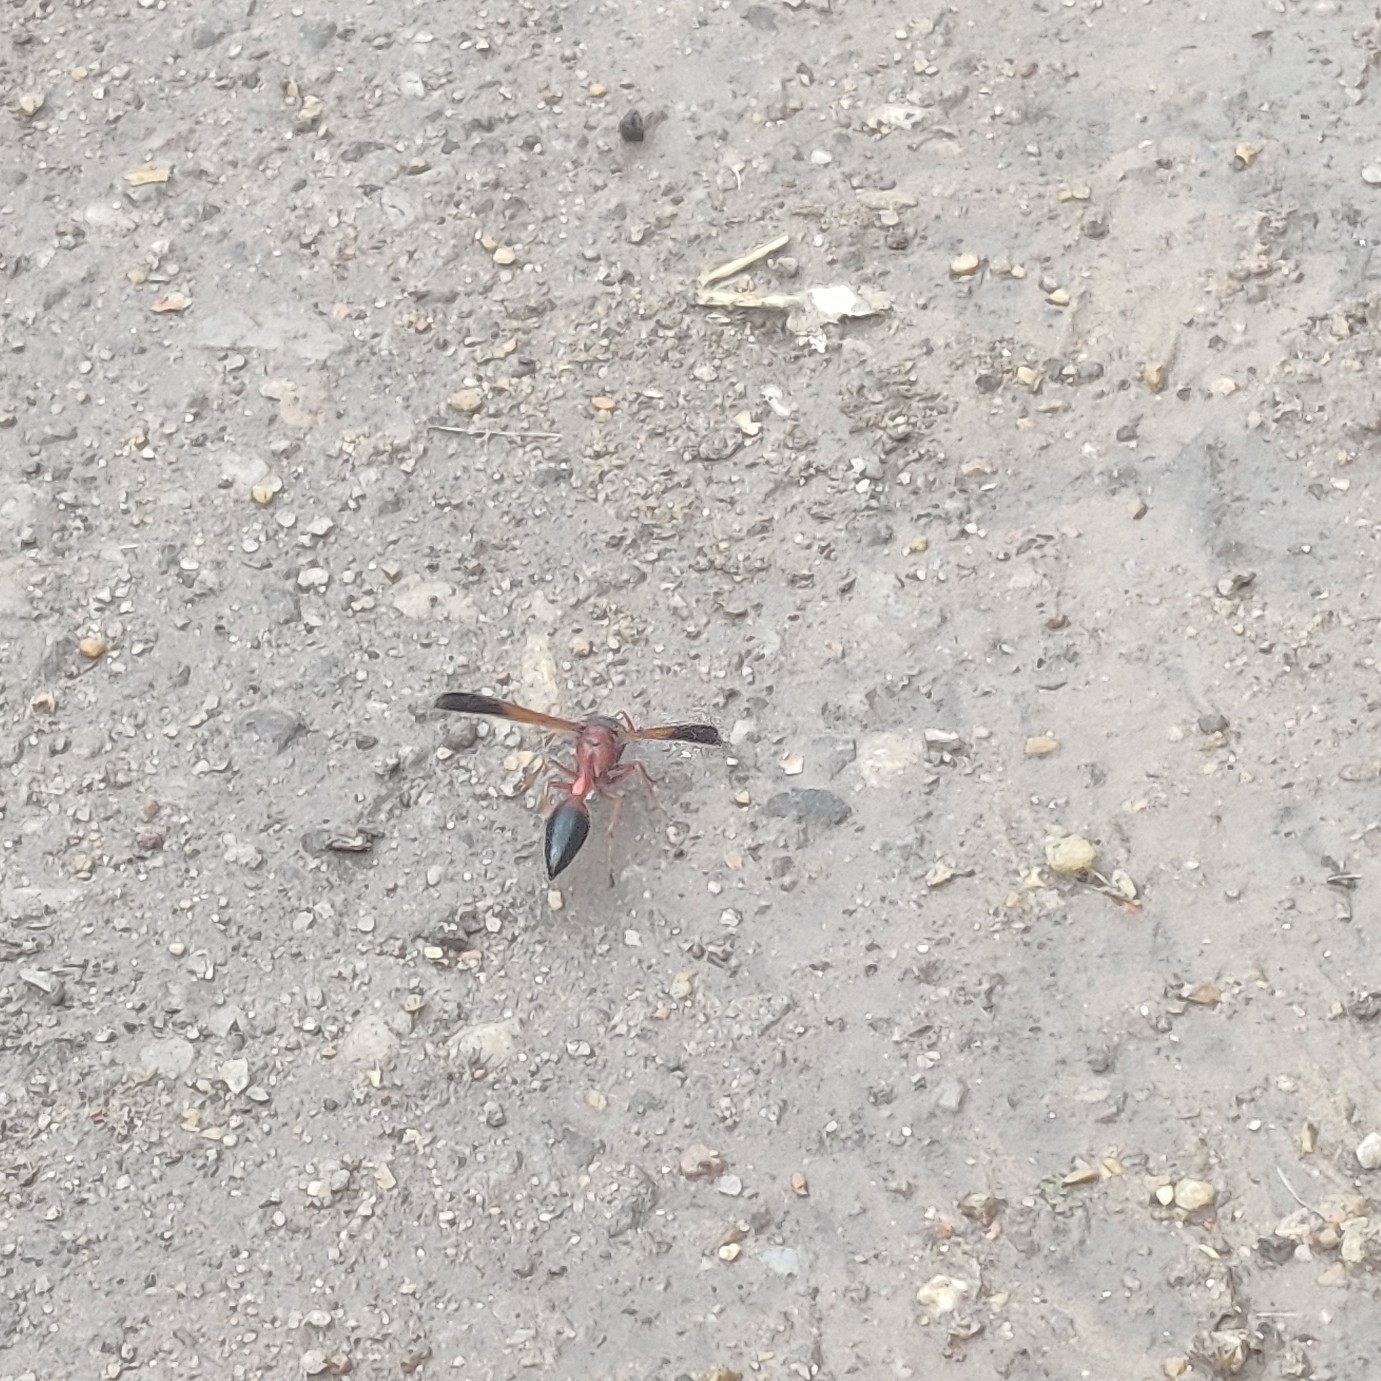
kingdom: Animalia
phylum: Arthropoda
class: Insecta
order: Hymenoptera
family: Eumenidae
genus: Delta
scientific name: Delta dimidiatipenne
